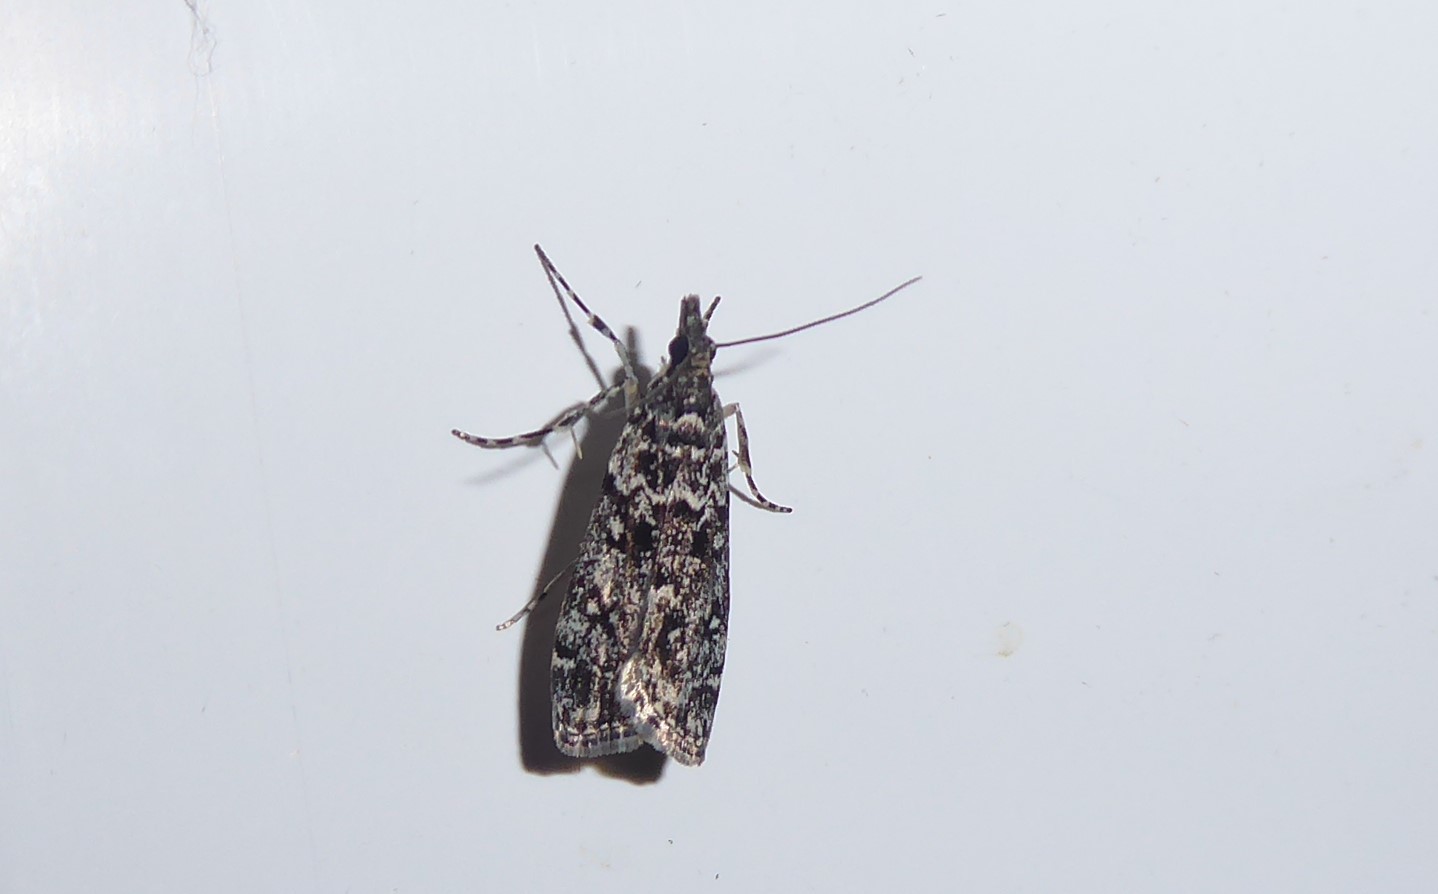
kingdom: Animalia
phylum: Arthropoda
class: Insecta
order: Lepidoptera
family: Crambidae
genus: Eudonia
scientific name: Eudonia philerga
